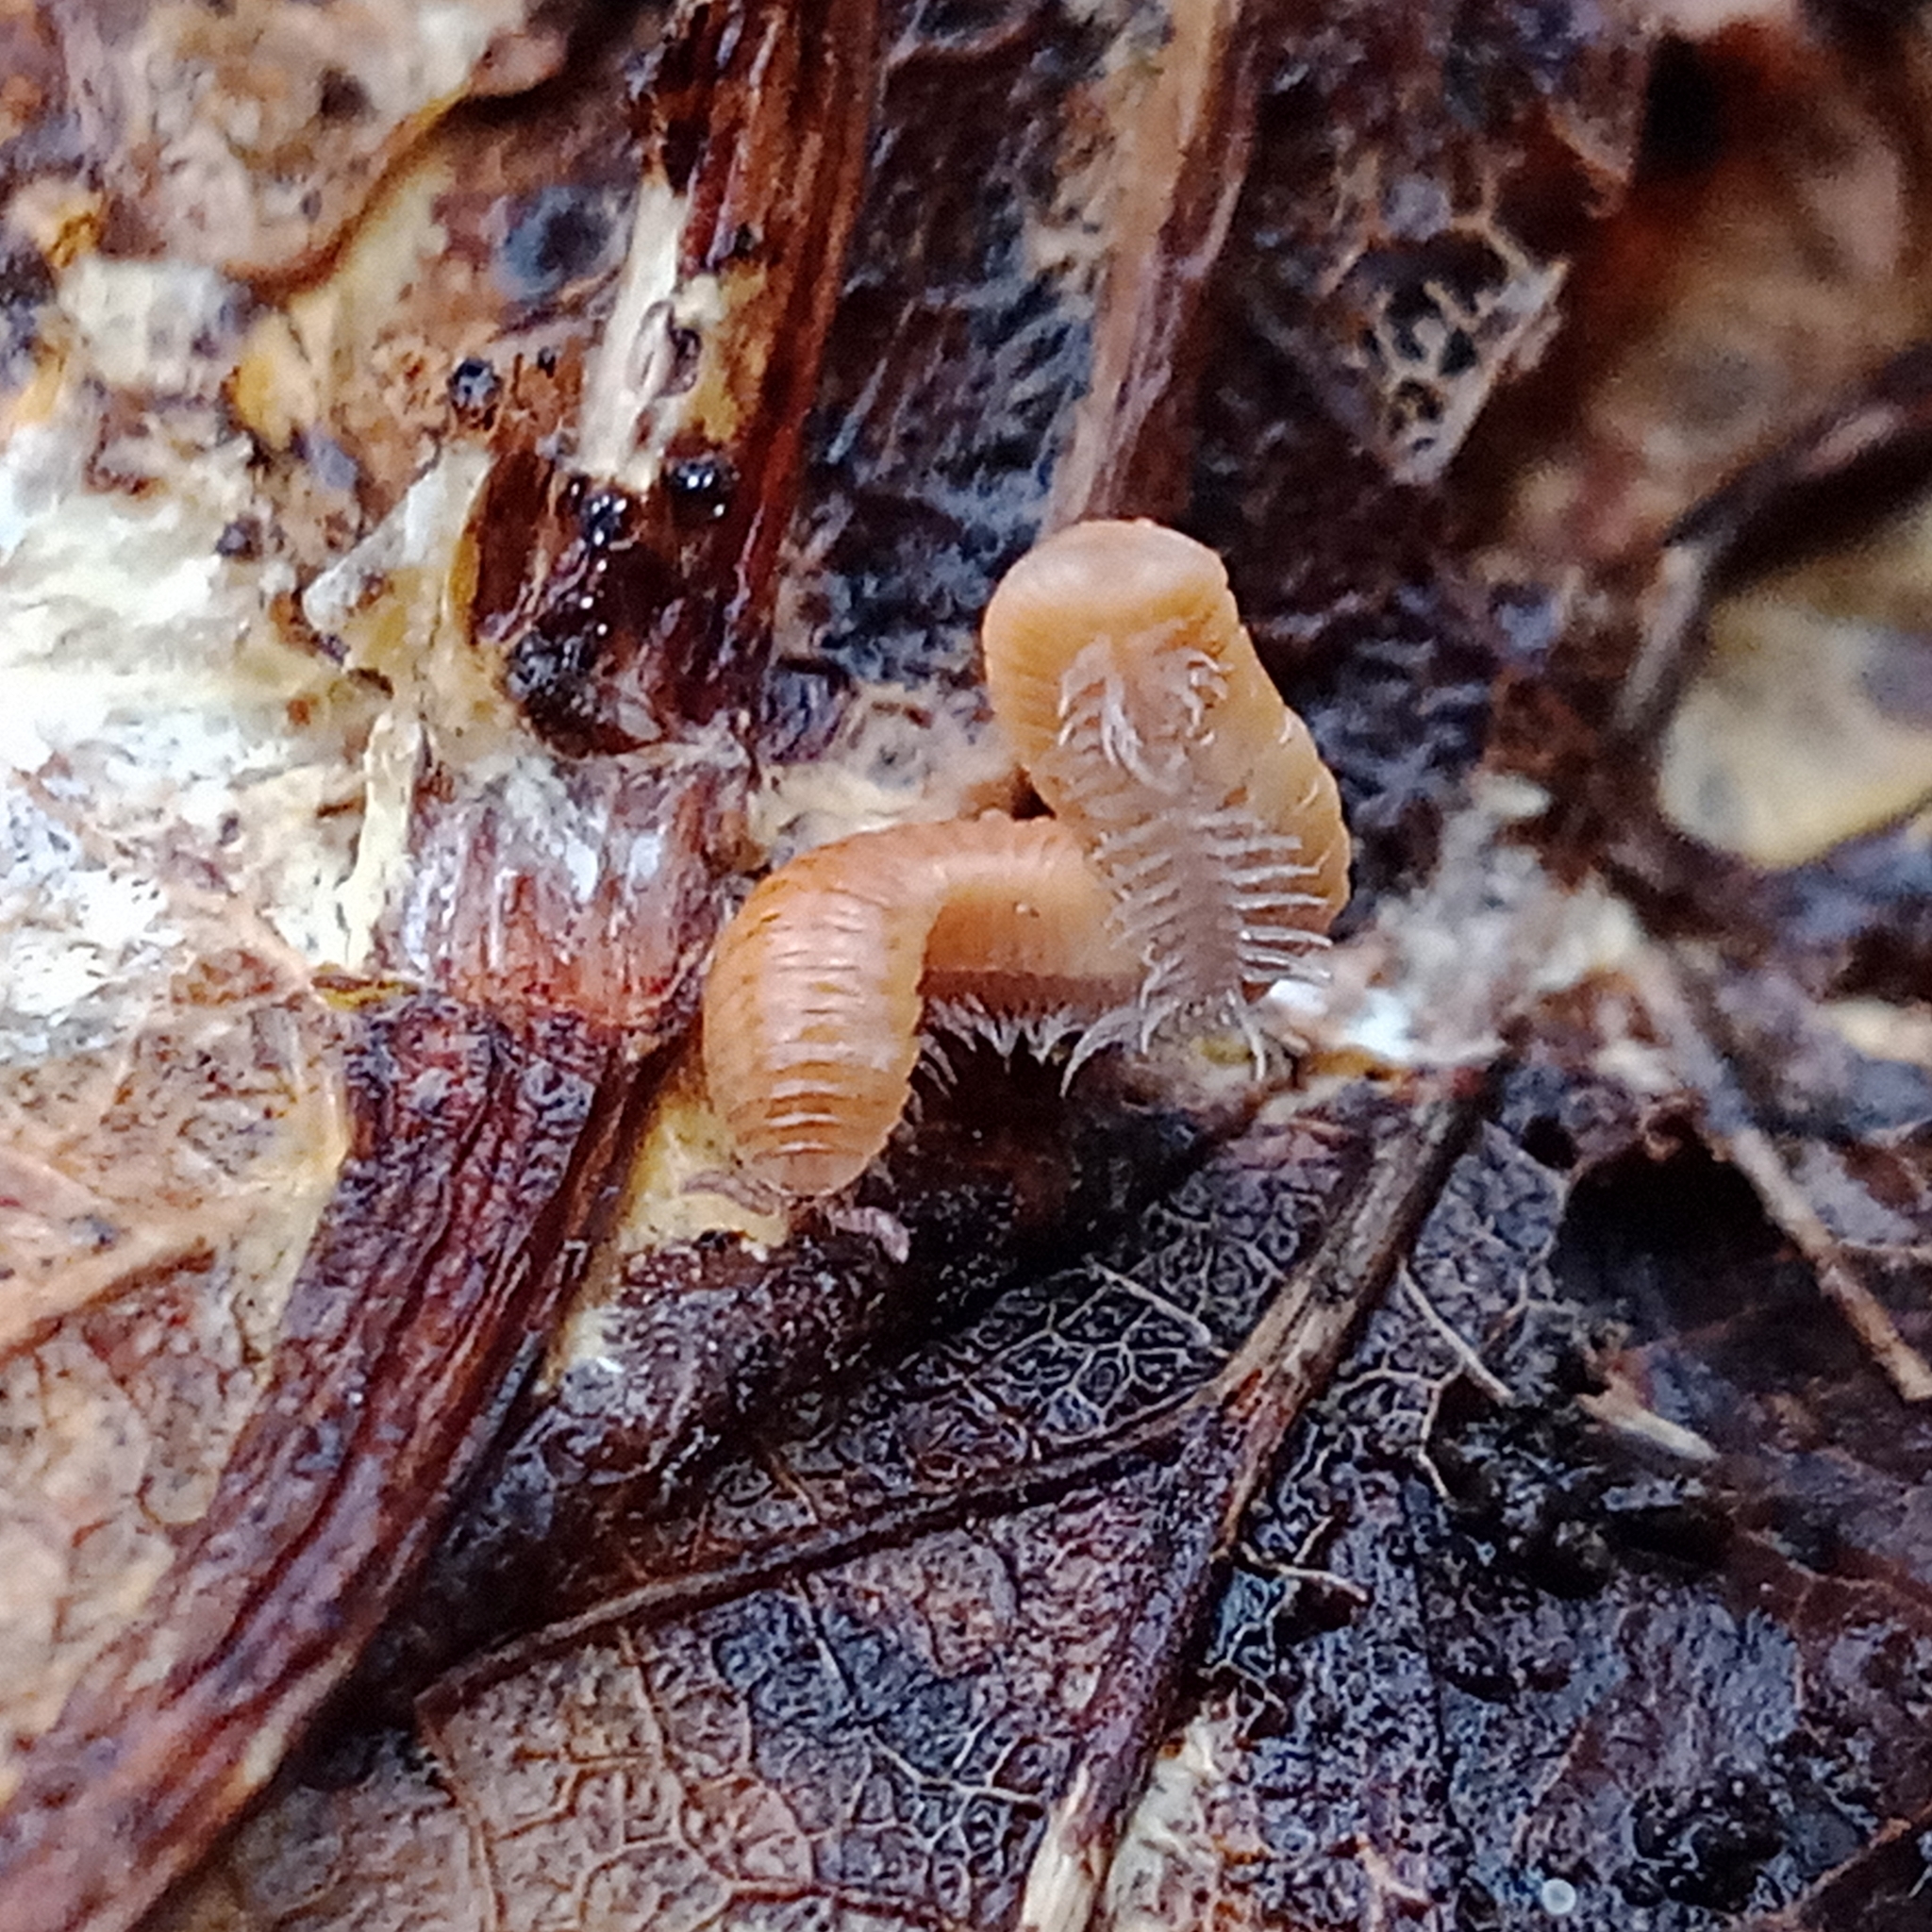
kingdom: Animalia
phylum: Arthropoda
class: Diplopoda
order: Polyzoniida
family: Polyzoniidae
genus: Polyzonium
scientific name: Polyzonium germanicum
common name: Boring millipede
